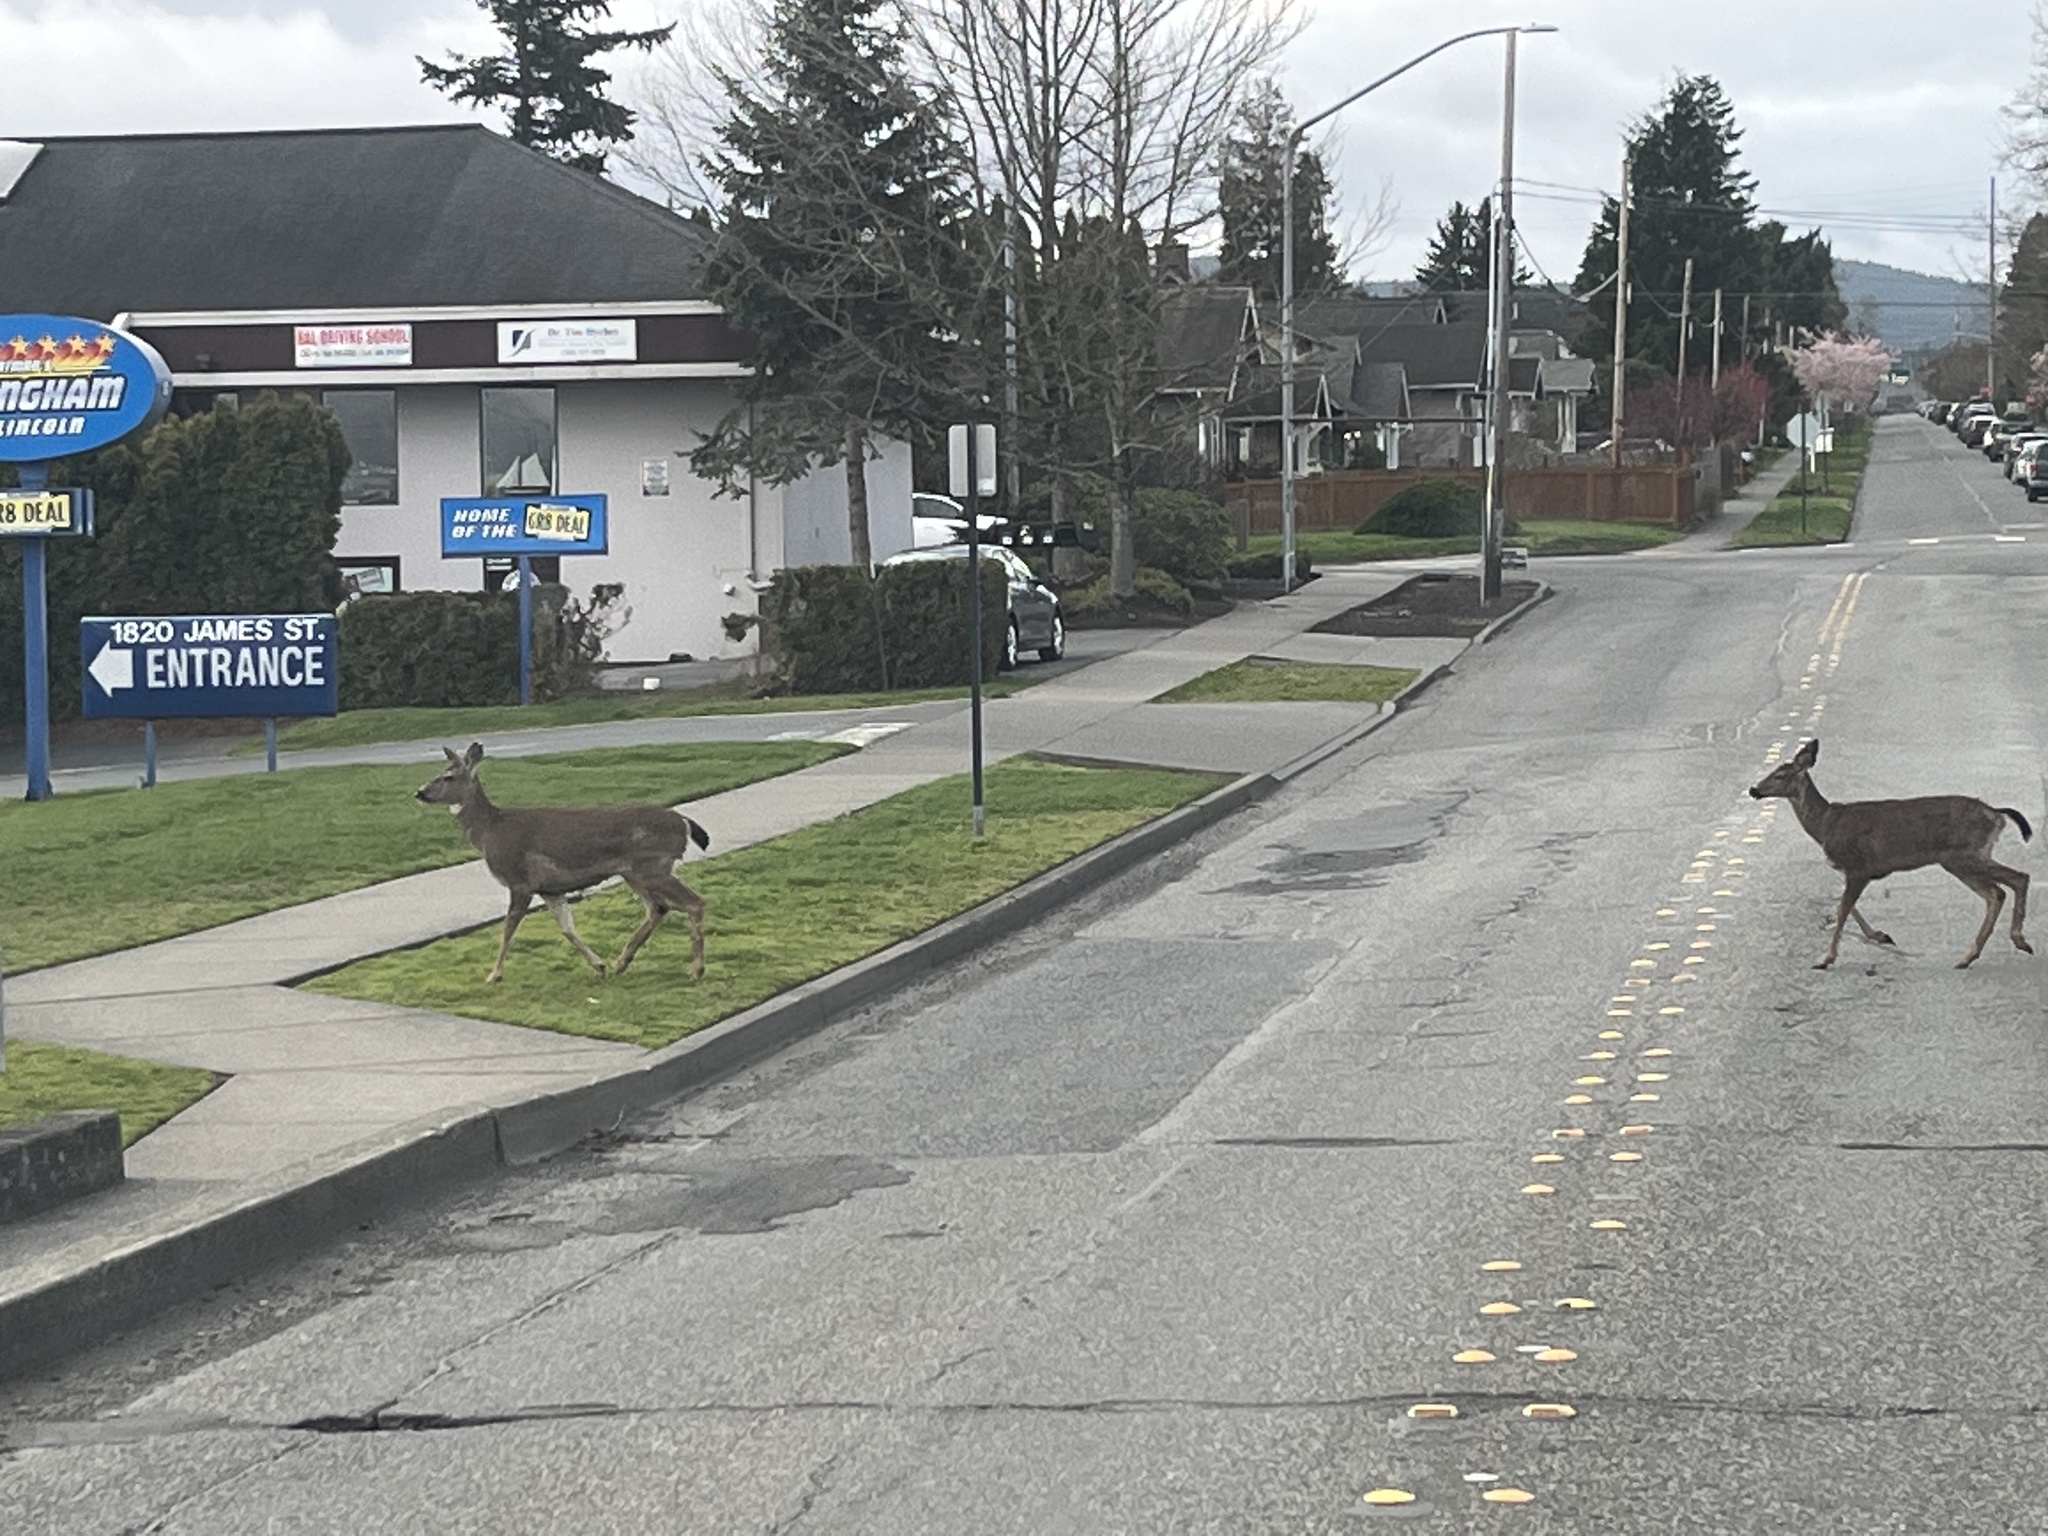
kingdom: Animalia
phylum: Chordata
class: Mammalia
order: Artiodactyla
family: Cervidae
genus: Odocoileus
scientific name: Odocoileus hemionus
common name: Mule deer
